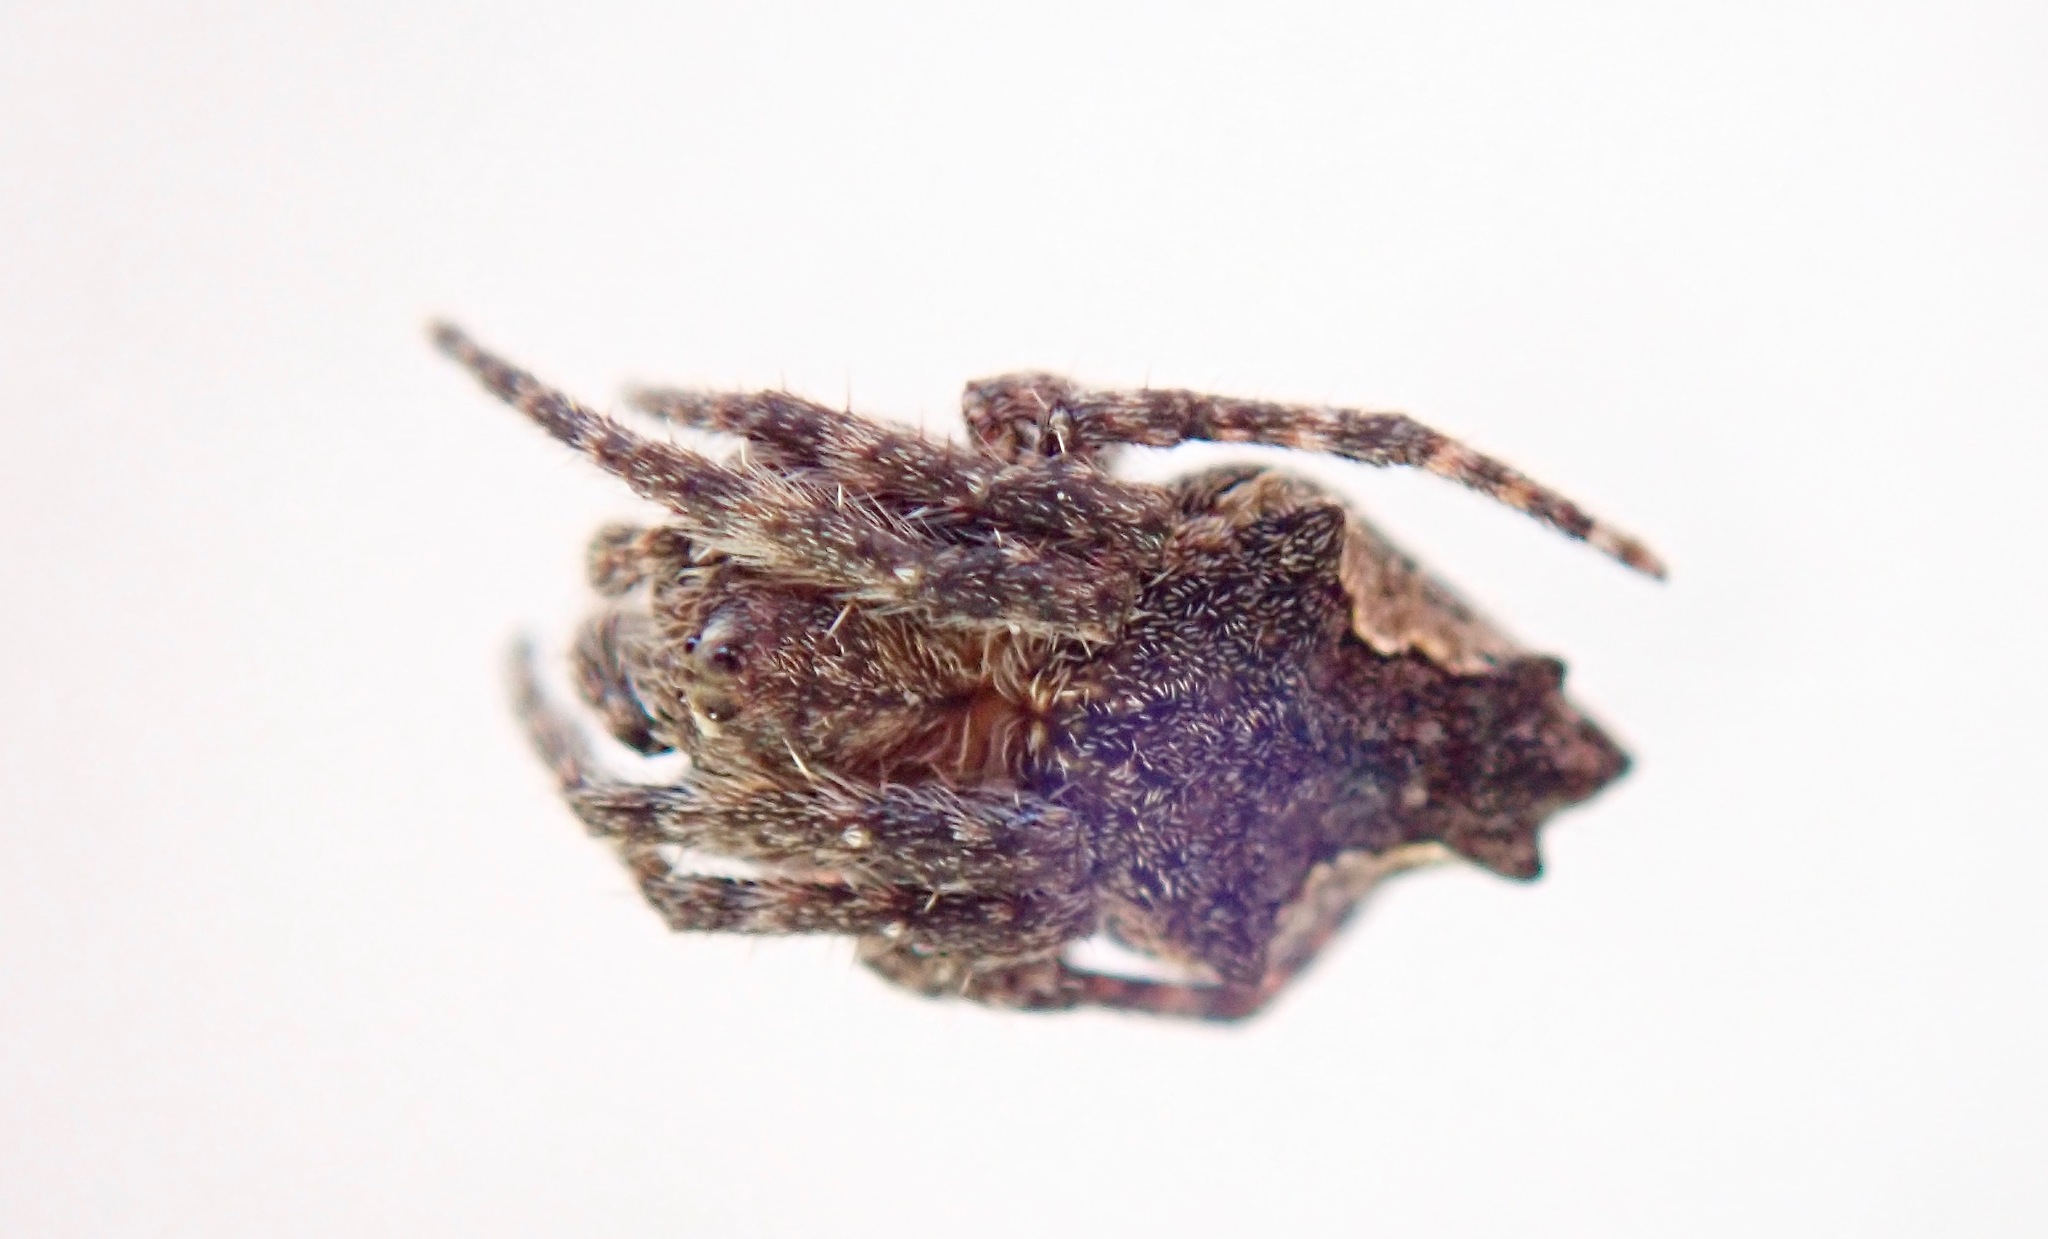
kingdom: Animalia
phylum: Arthropoda
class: Arachnida
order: Araneae
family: Araneidae
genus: Eriophora
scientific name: Eriophora pustulosa
